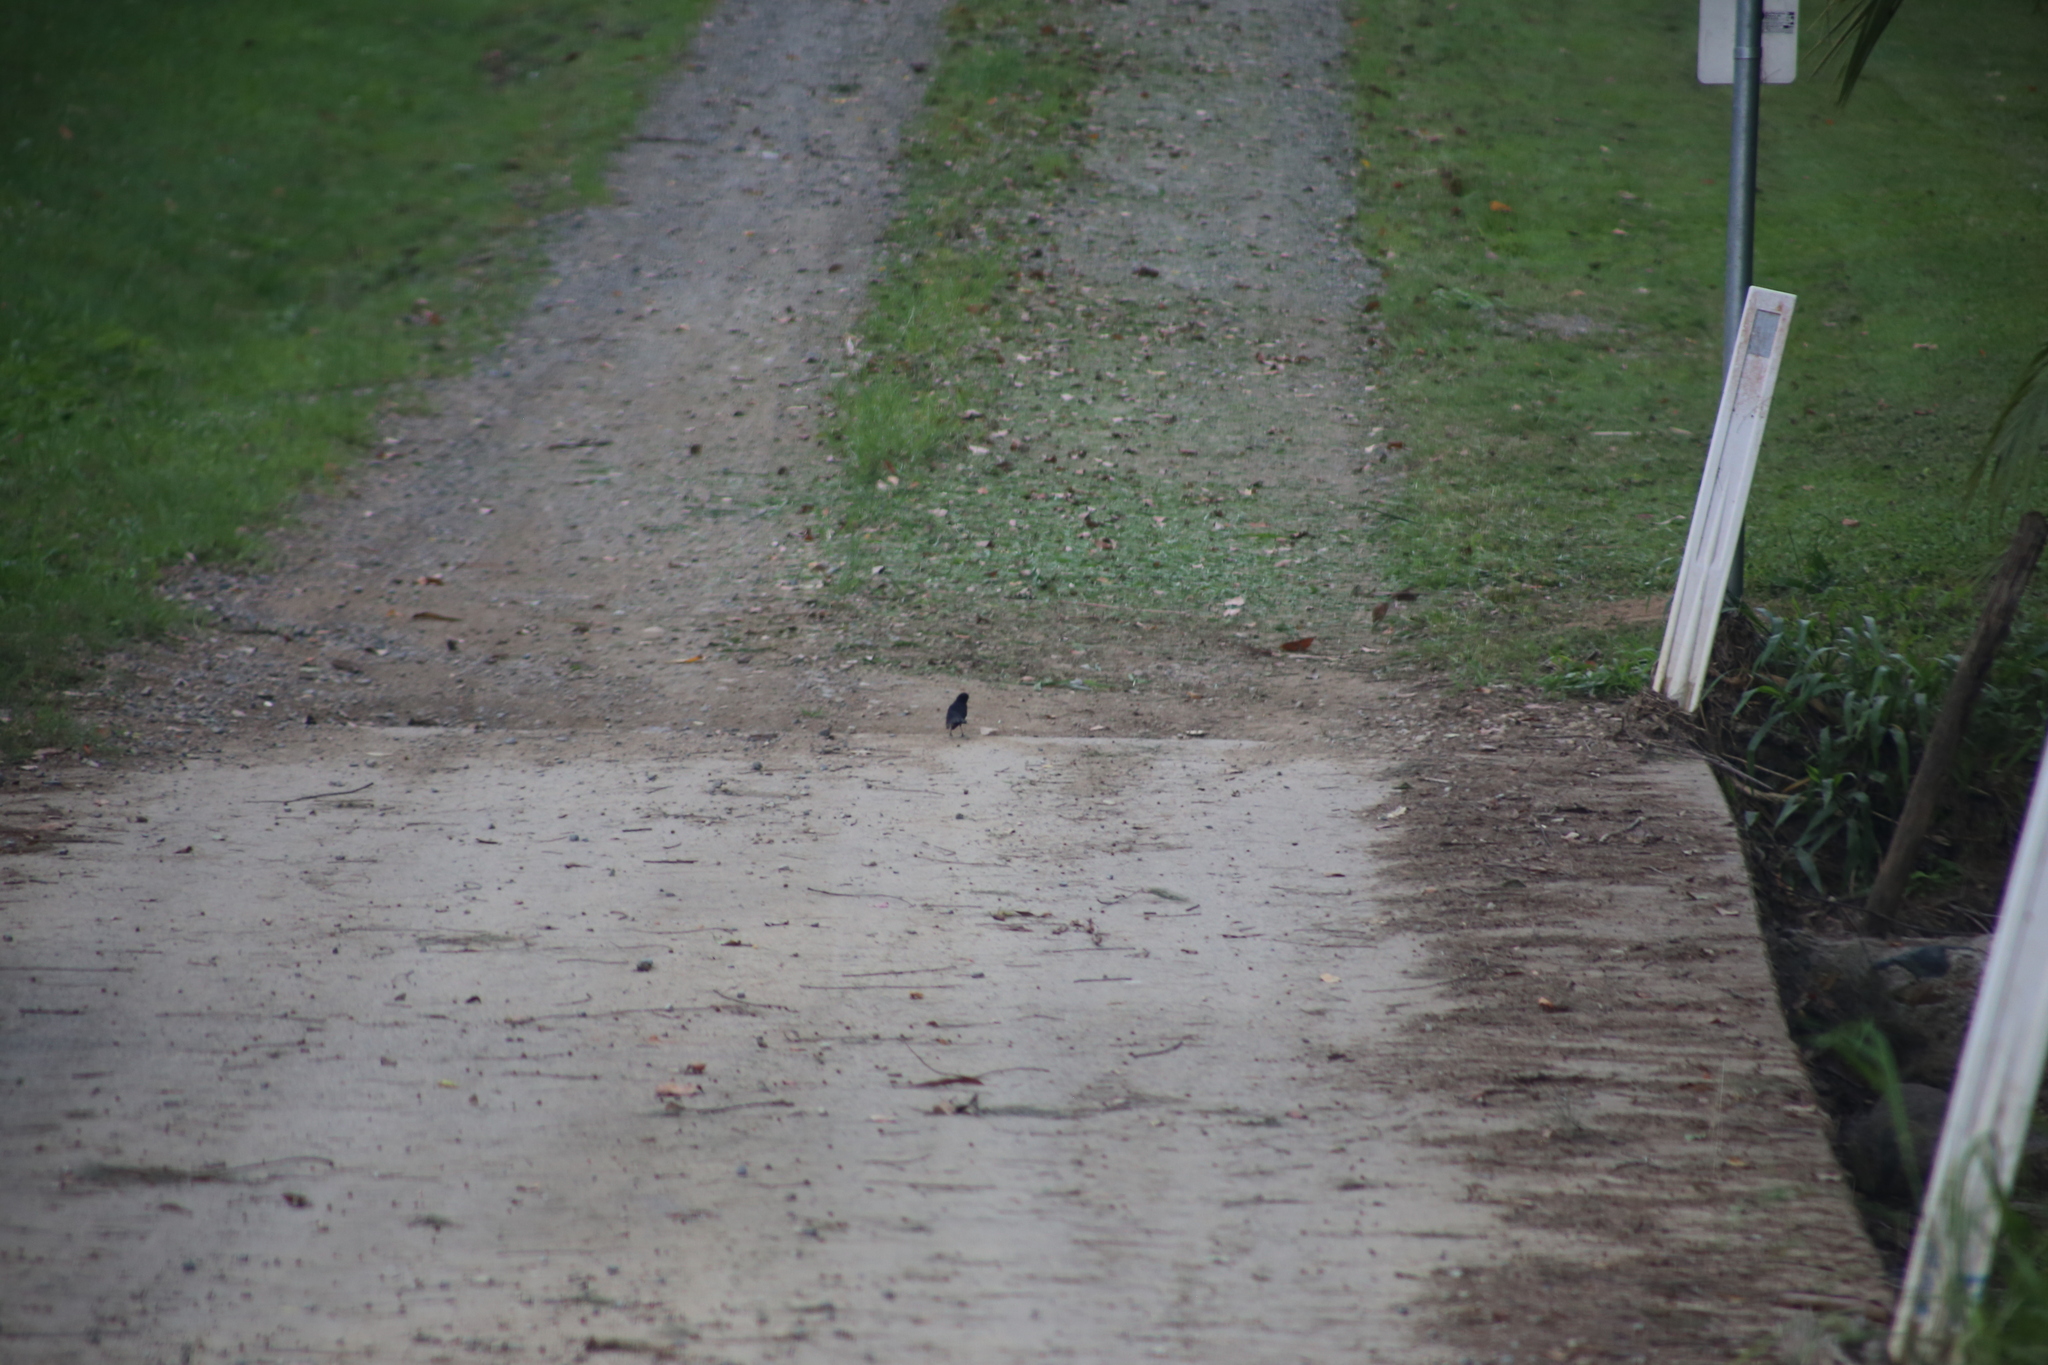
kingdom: Animalia
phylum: Chordata
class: Aves
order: Passeriformes
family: Rhipiduridae
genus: Rhipidura
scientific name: Rhipidura leucophrys
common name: Willie wagtail
